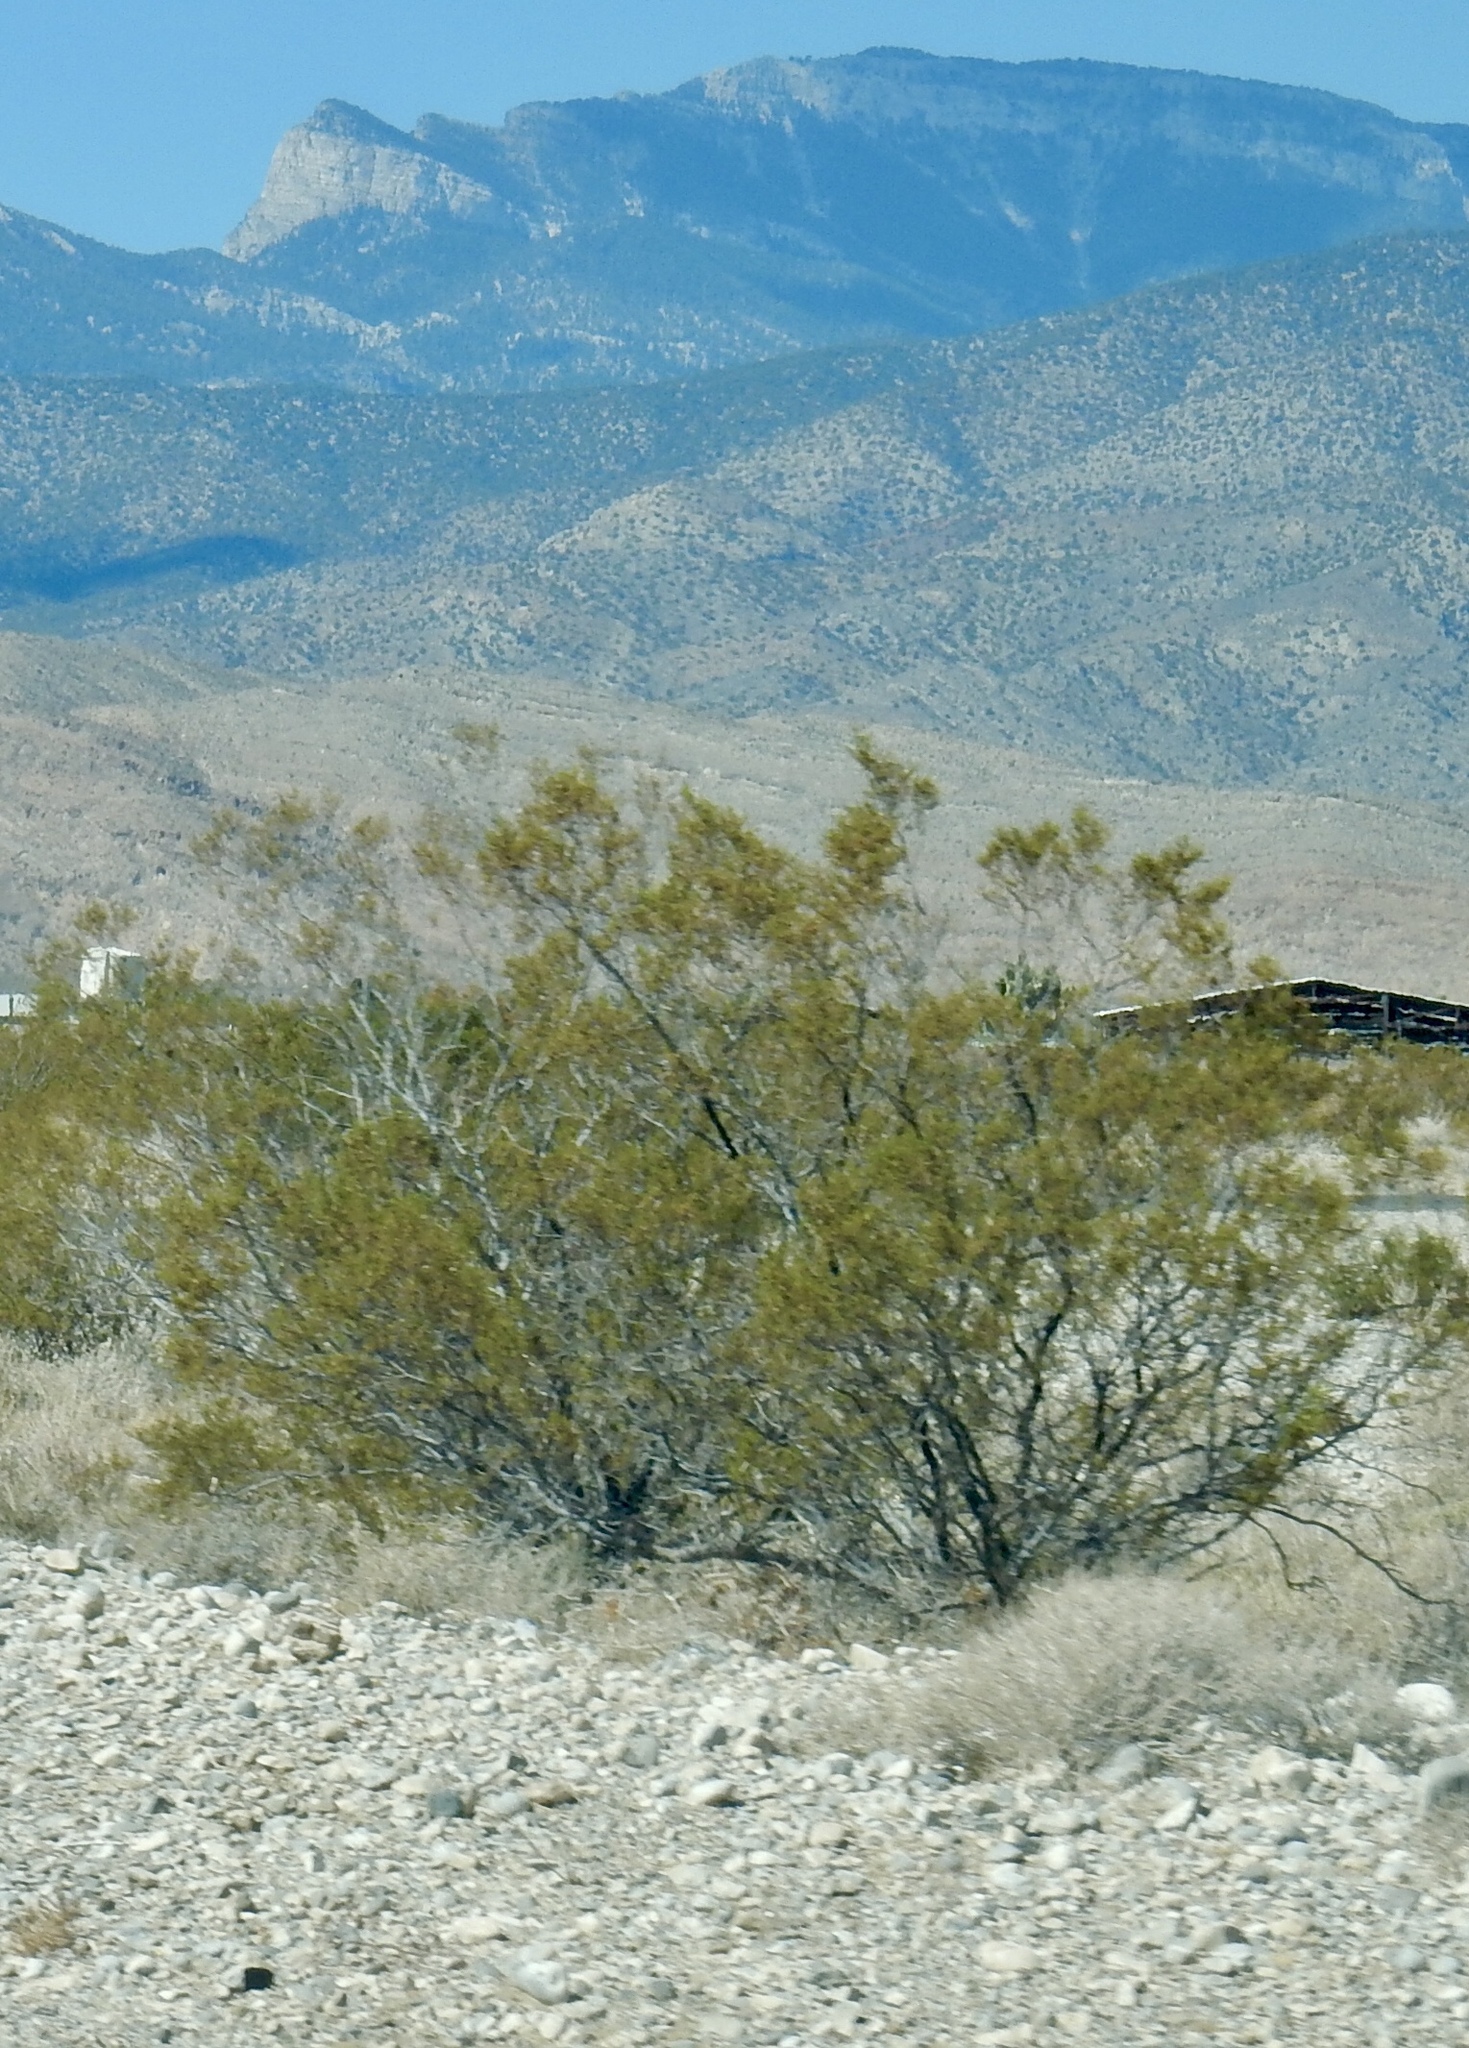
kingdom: Plantae
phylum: Tracheophyta
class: Magnoliopsida
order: Zygophyllales
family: Zygophyllaceae
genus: Larrea
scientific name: Larrea tridentata
